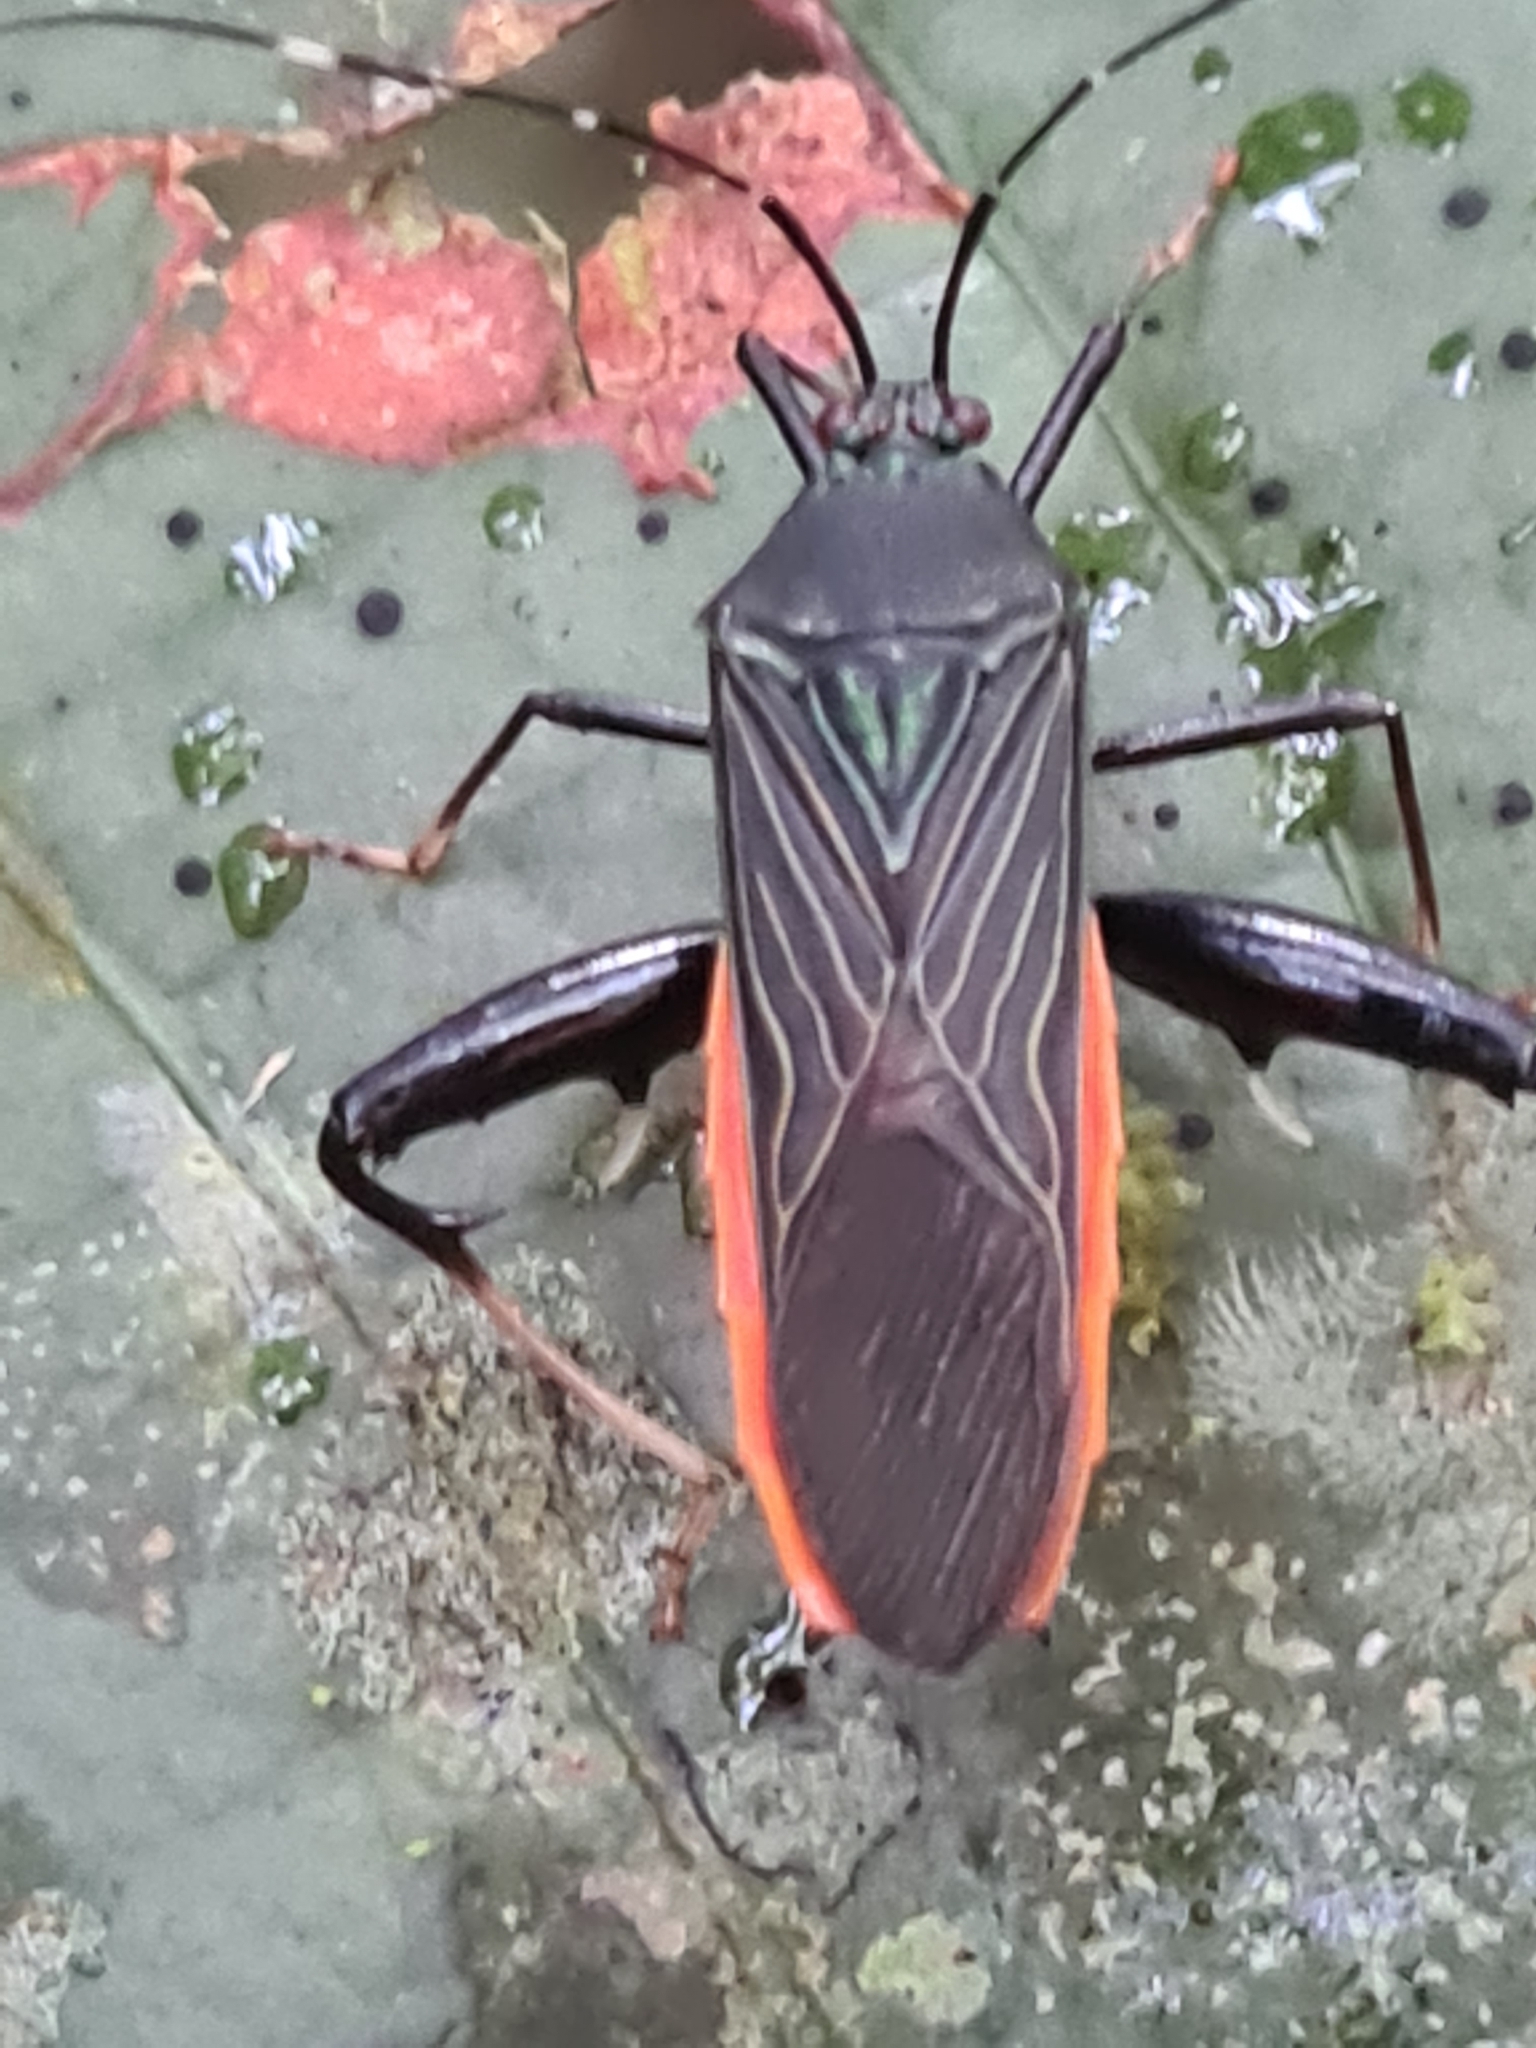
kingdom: Animalia
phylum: Arthropoda
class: Insecta
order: Hemiptera
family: Coreidae
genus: Nematopus
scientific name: Nematopus indus
